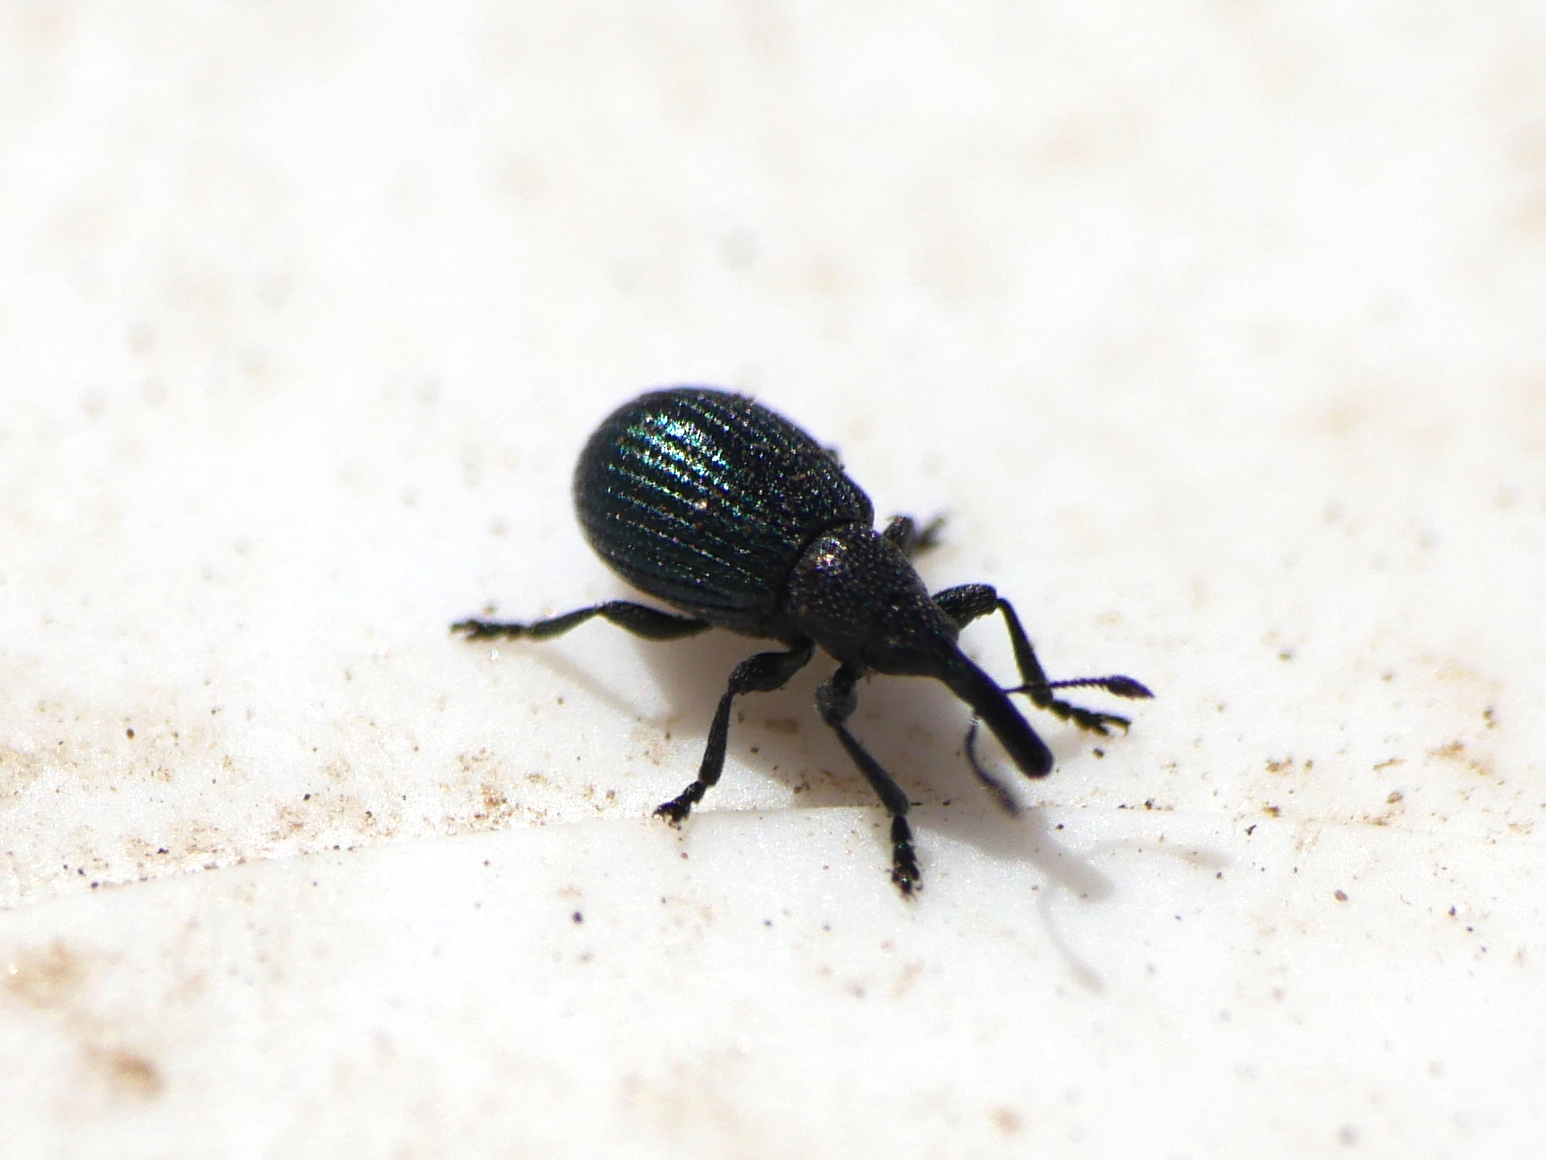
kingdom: Animalia
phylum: Arthropoda
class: Insecta
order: Coleoptera
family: Brentidae
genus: Perapion
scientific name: Perapion marchicum
